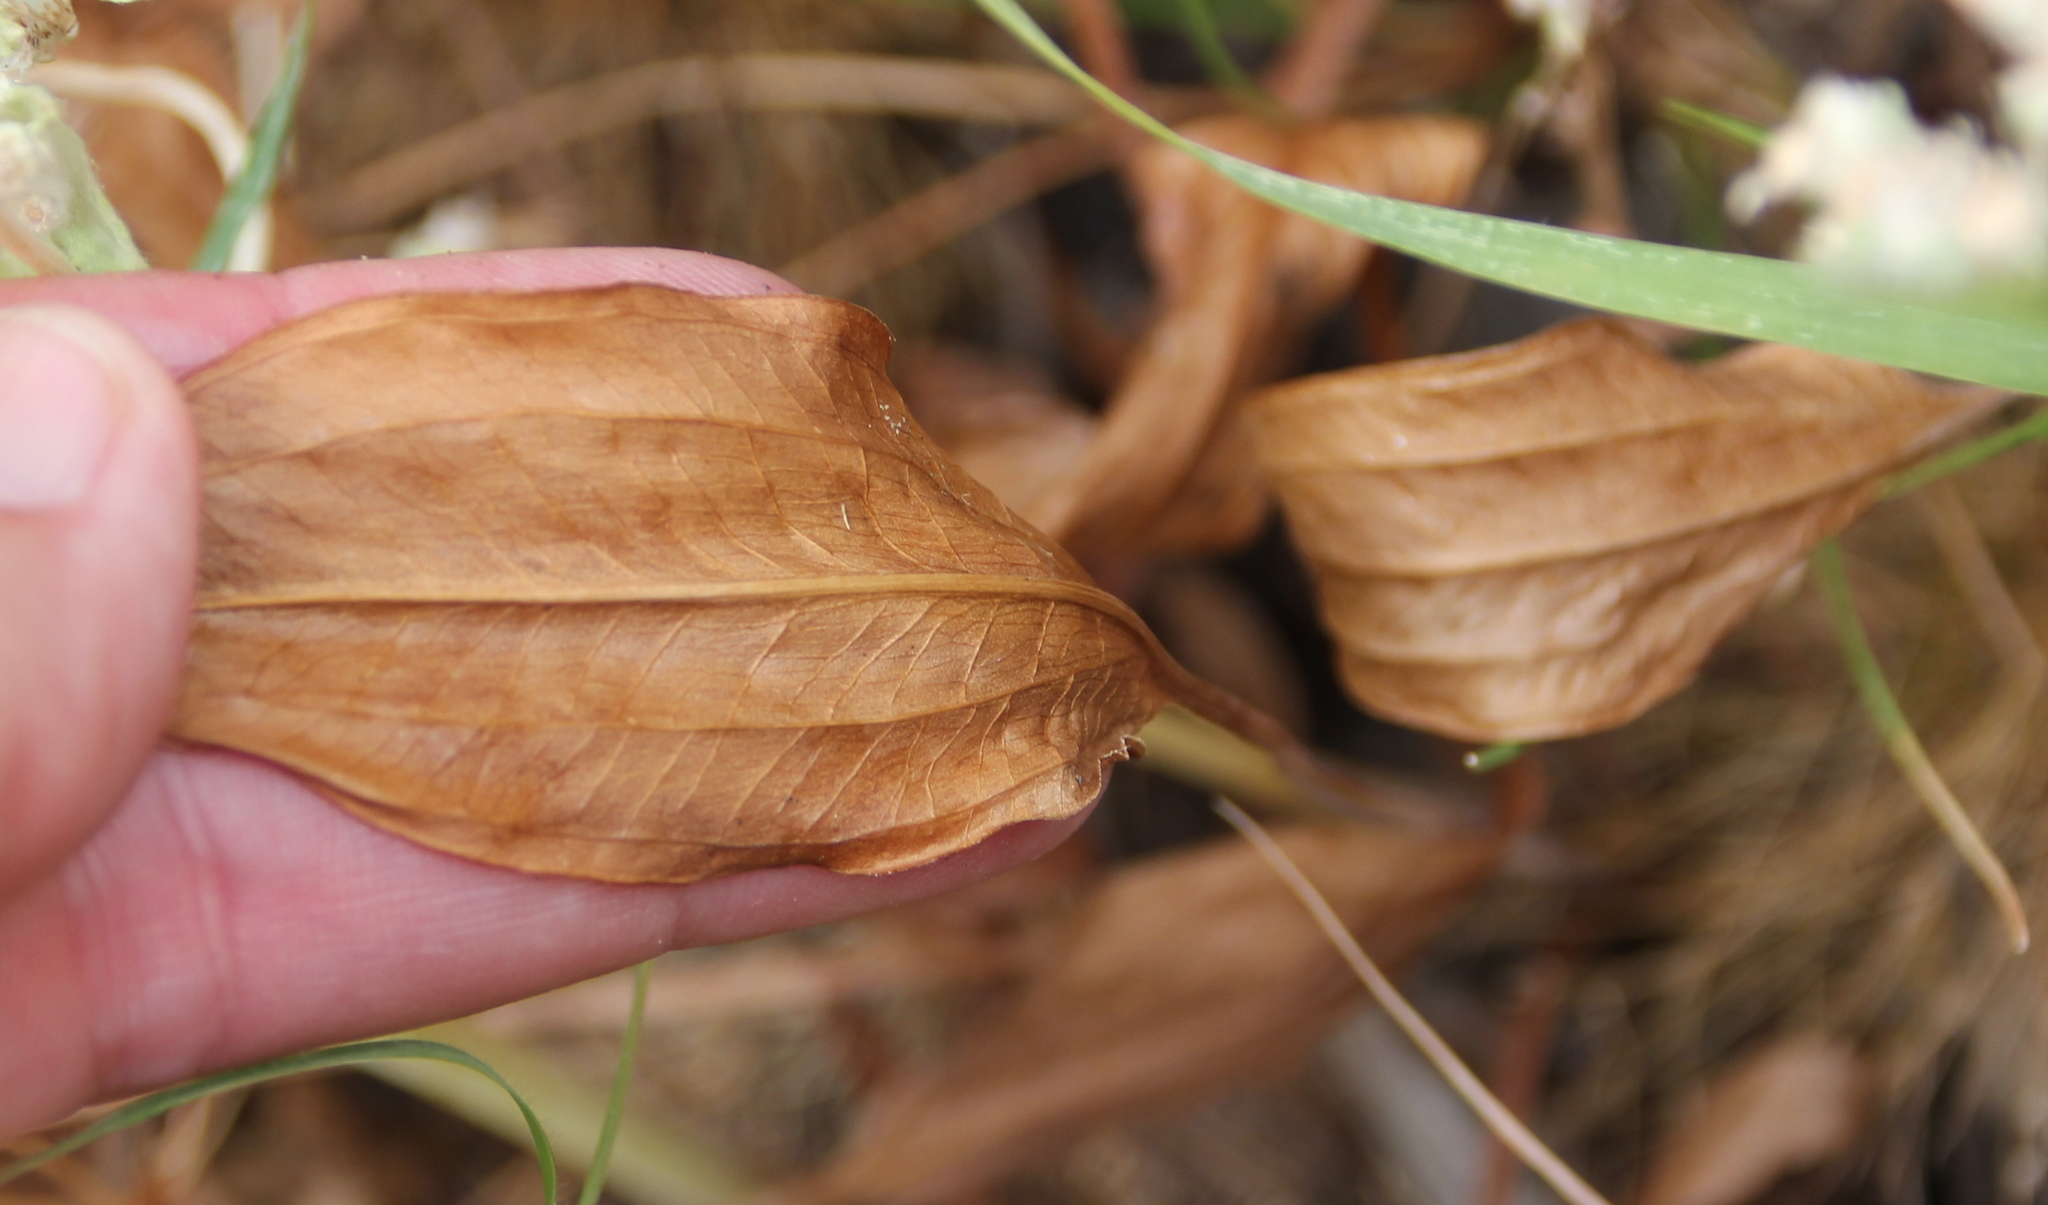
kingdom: Plantae
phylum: Tracheophyta
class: Liliopsida
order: Alismatales
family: Alismataceae
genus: Alisma
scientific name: Alisma triviale
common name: Northern water-plantain
